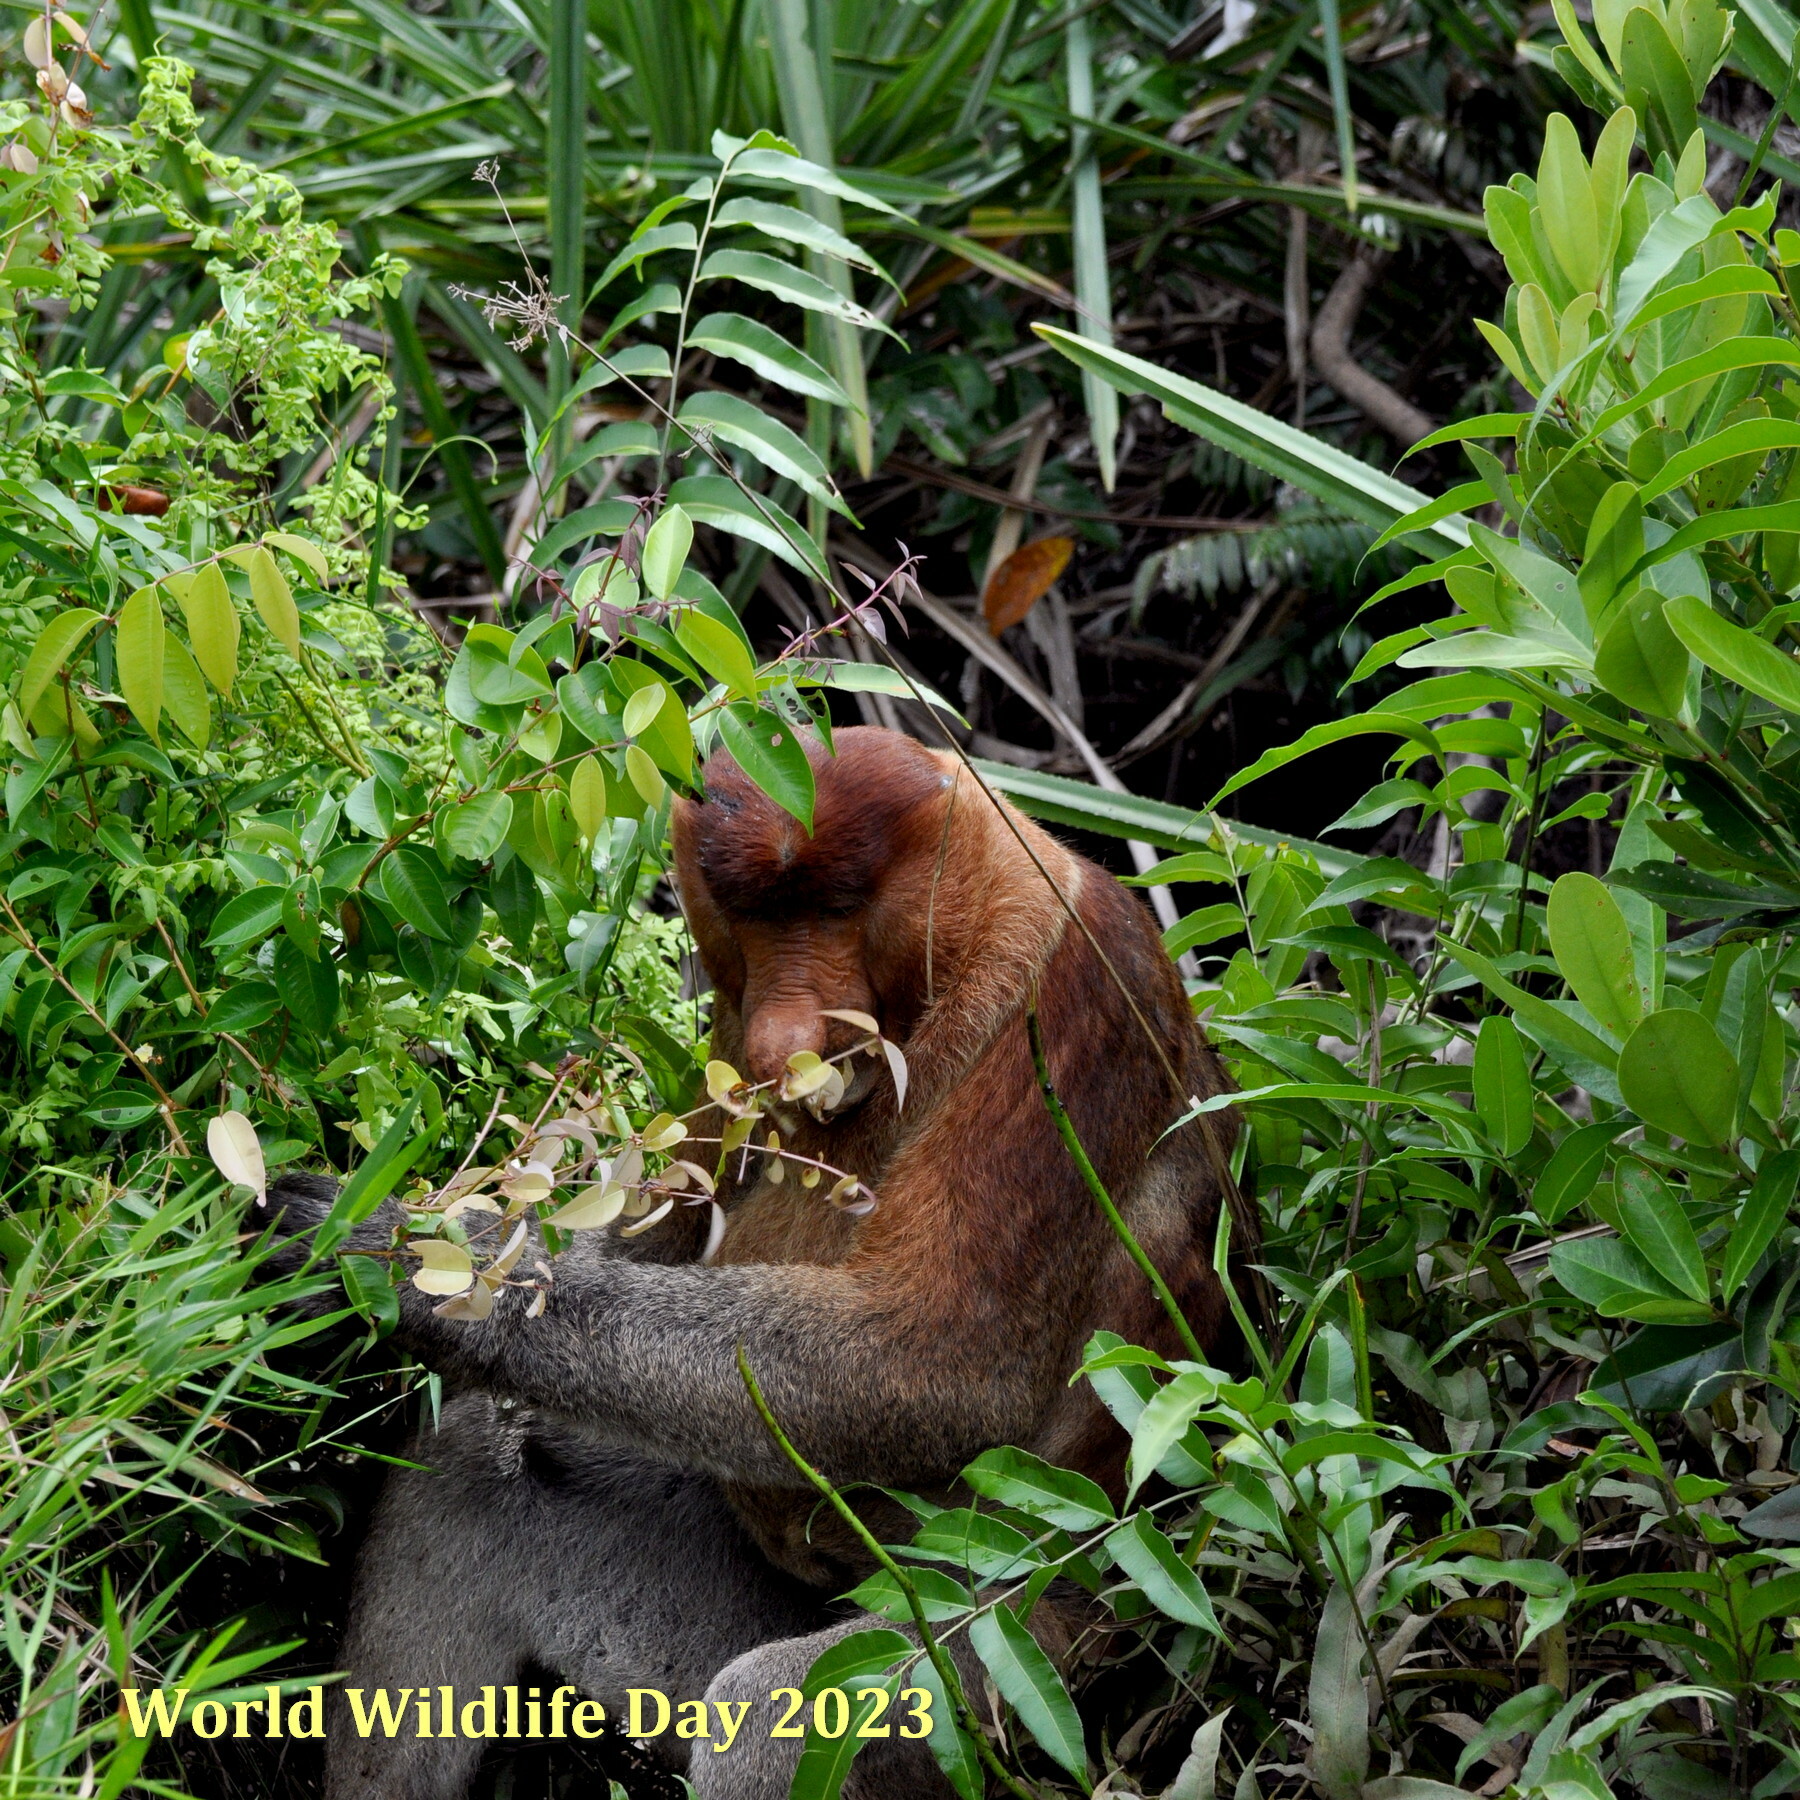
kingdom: Animalia
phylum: Chordata
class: Mammalia
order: Primates
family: Cercopithecidae
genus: Nasalis
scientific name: Nasalis larvatus
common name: Proboscis monkey
